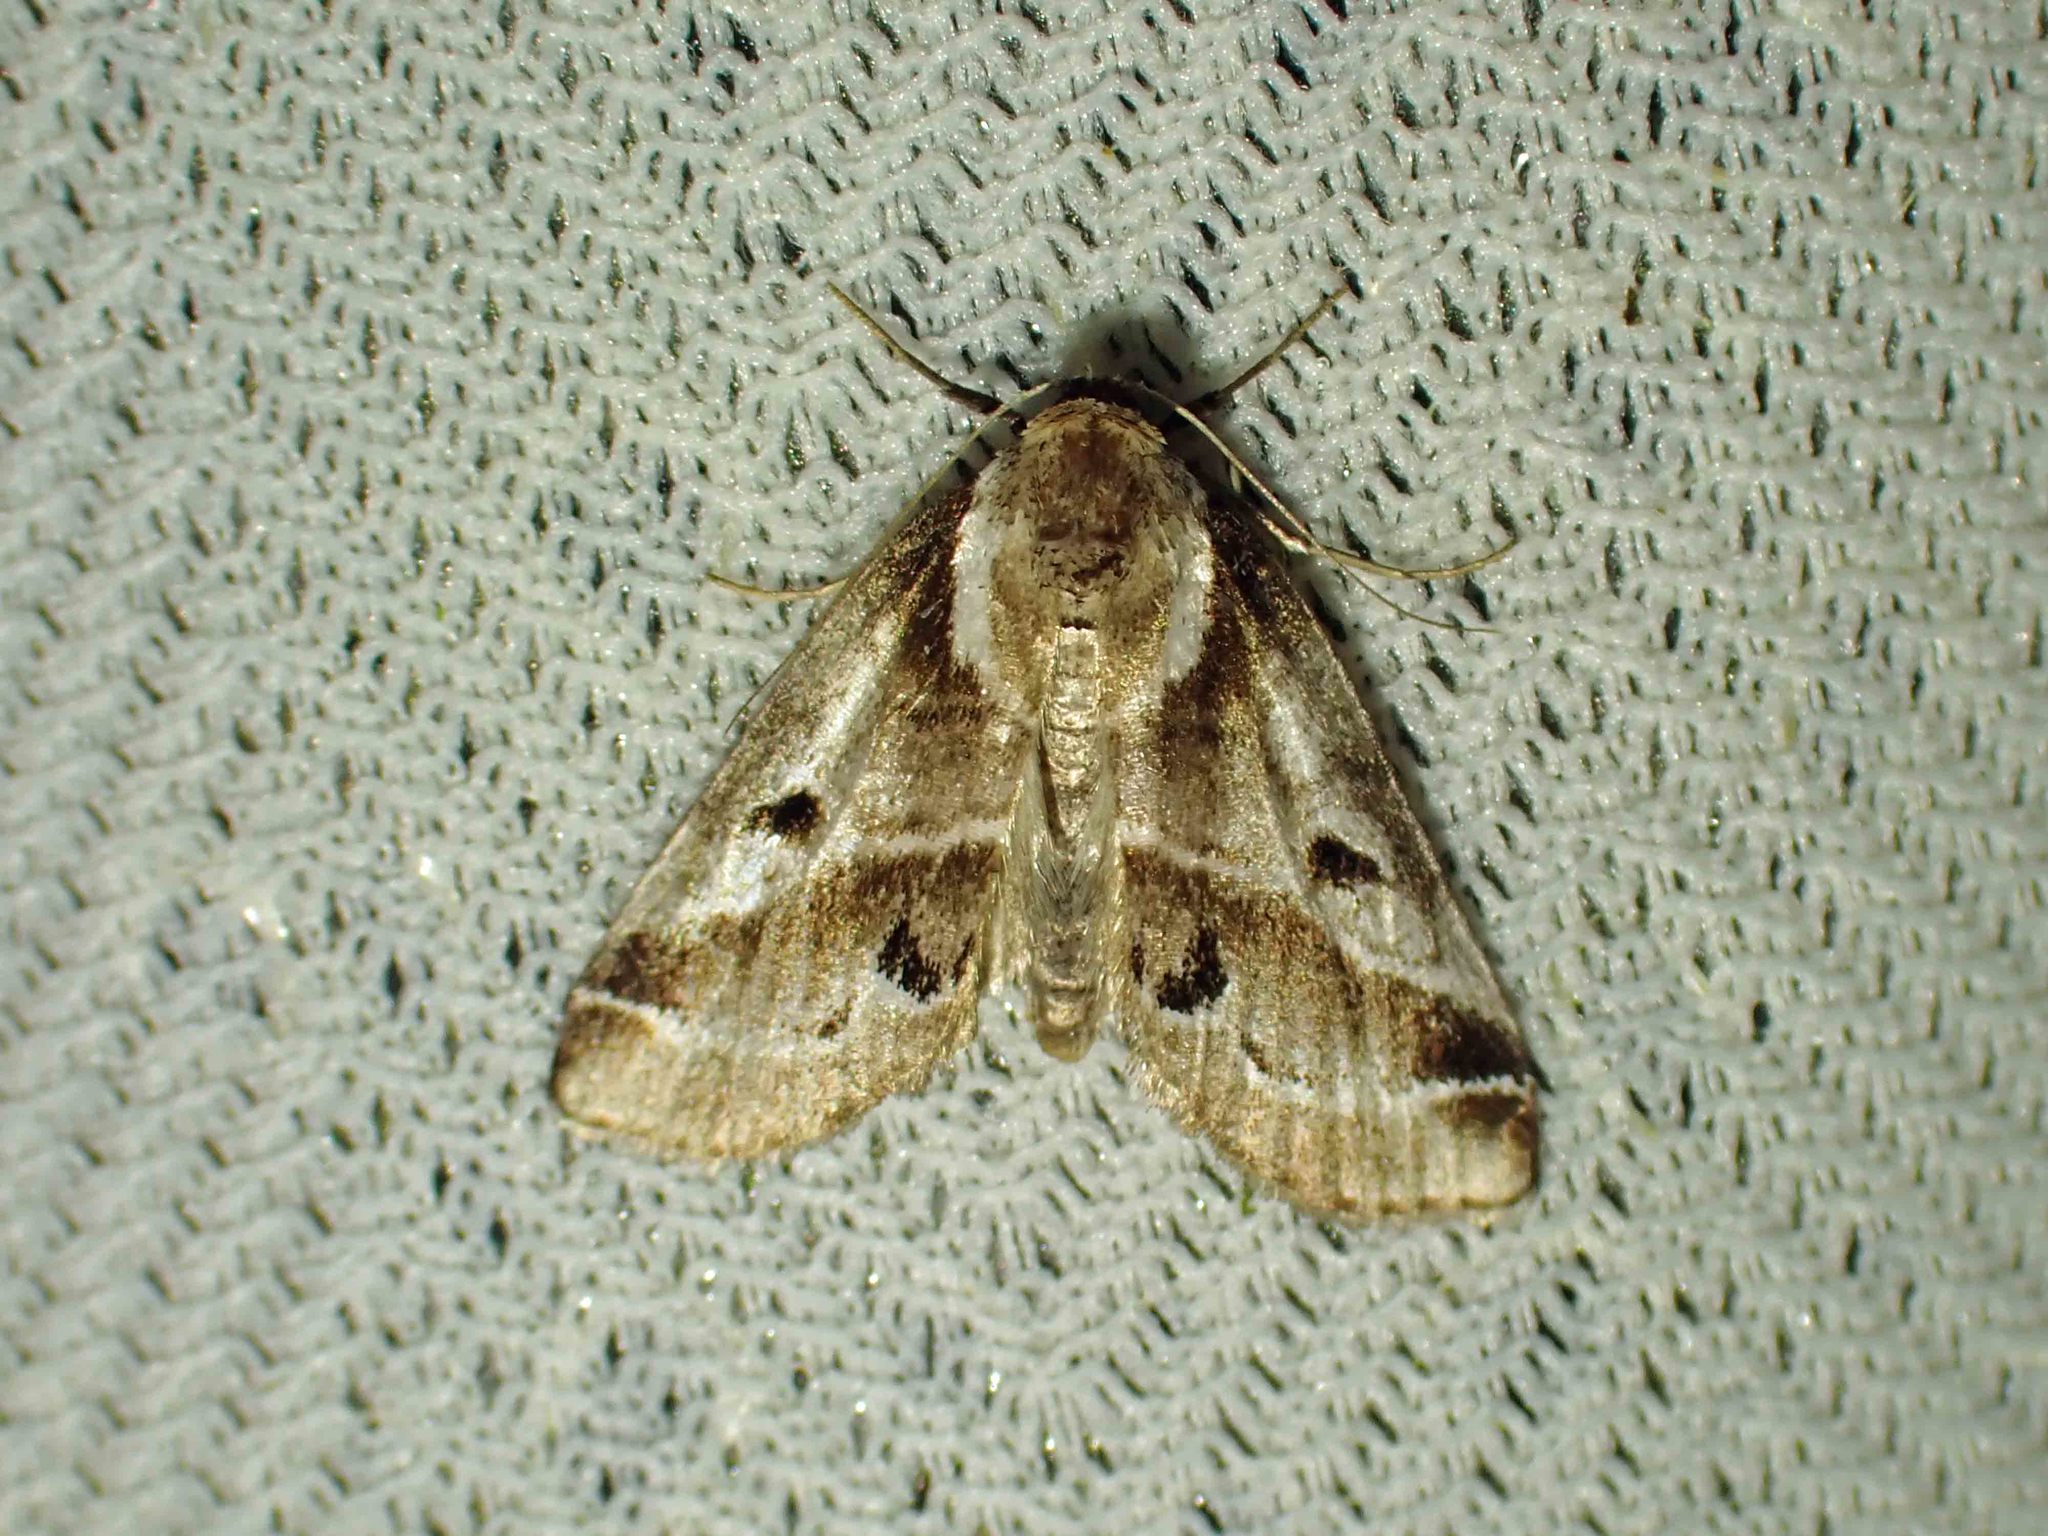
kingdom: Animalia
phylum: Arthropoda
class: Insecta
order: Lepidoptera
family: Nolidae
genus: Baileya
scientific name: Baileya doubledayi
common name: Doubleday's baileya moth
